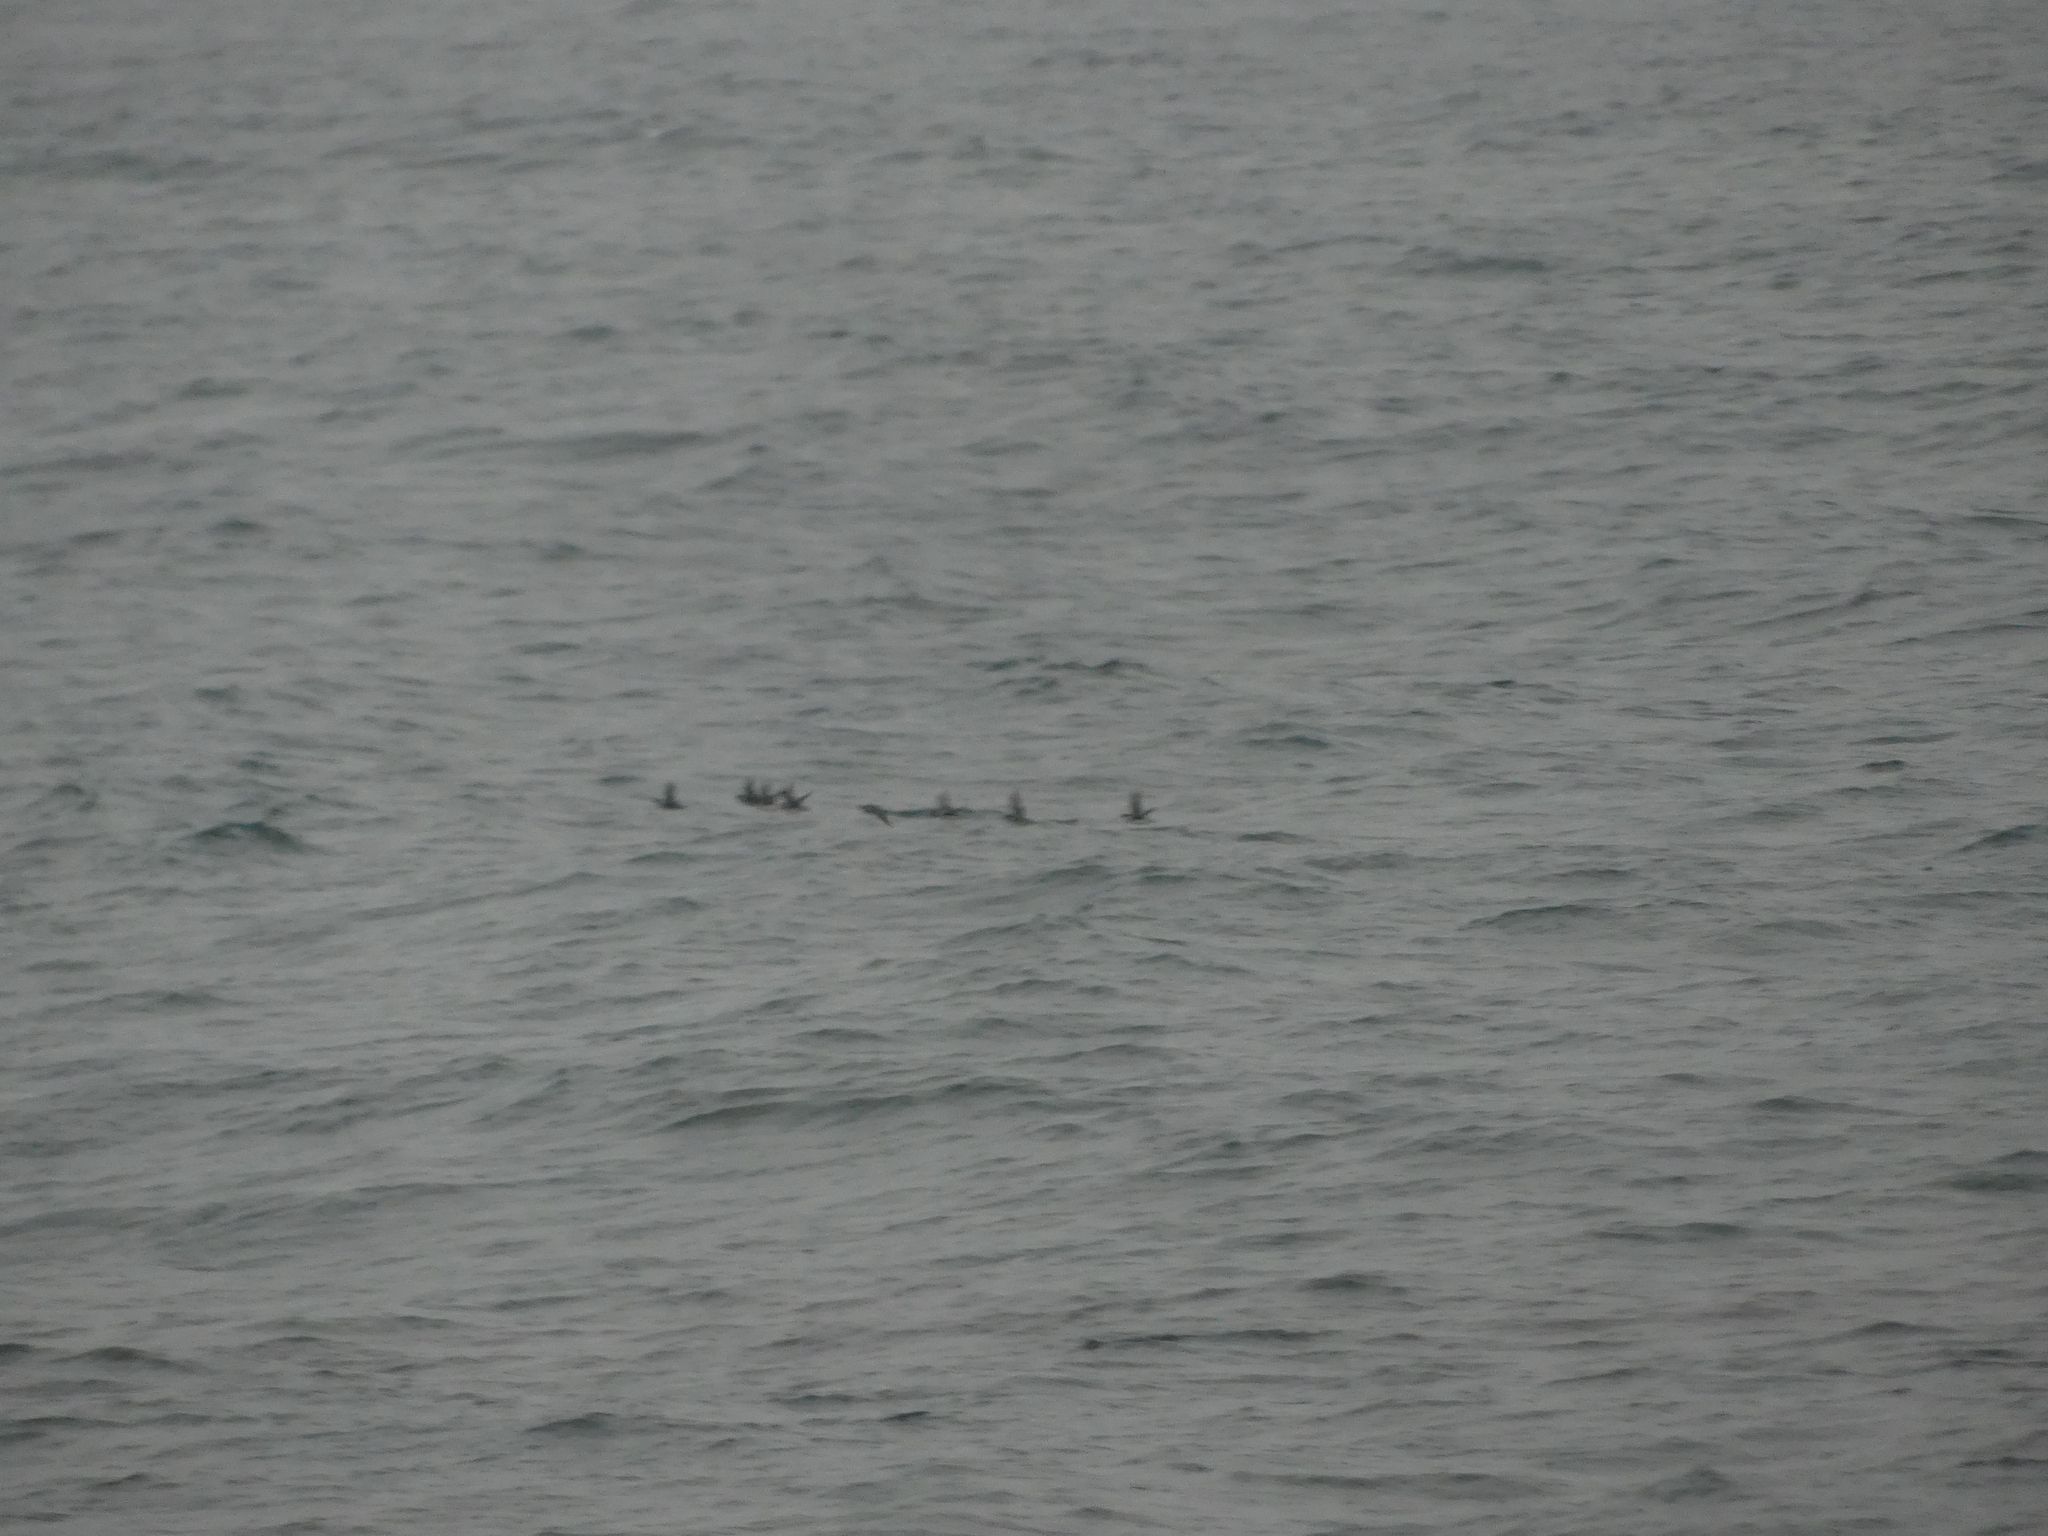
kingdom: Animalia
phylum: Chordata
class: Aves
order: Charadriiformes
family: Alcidae
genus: Synthliboramphus
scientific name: Synthliboramphus antiquus
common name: Ancient murrelet
